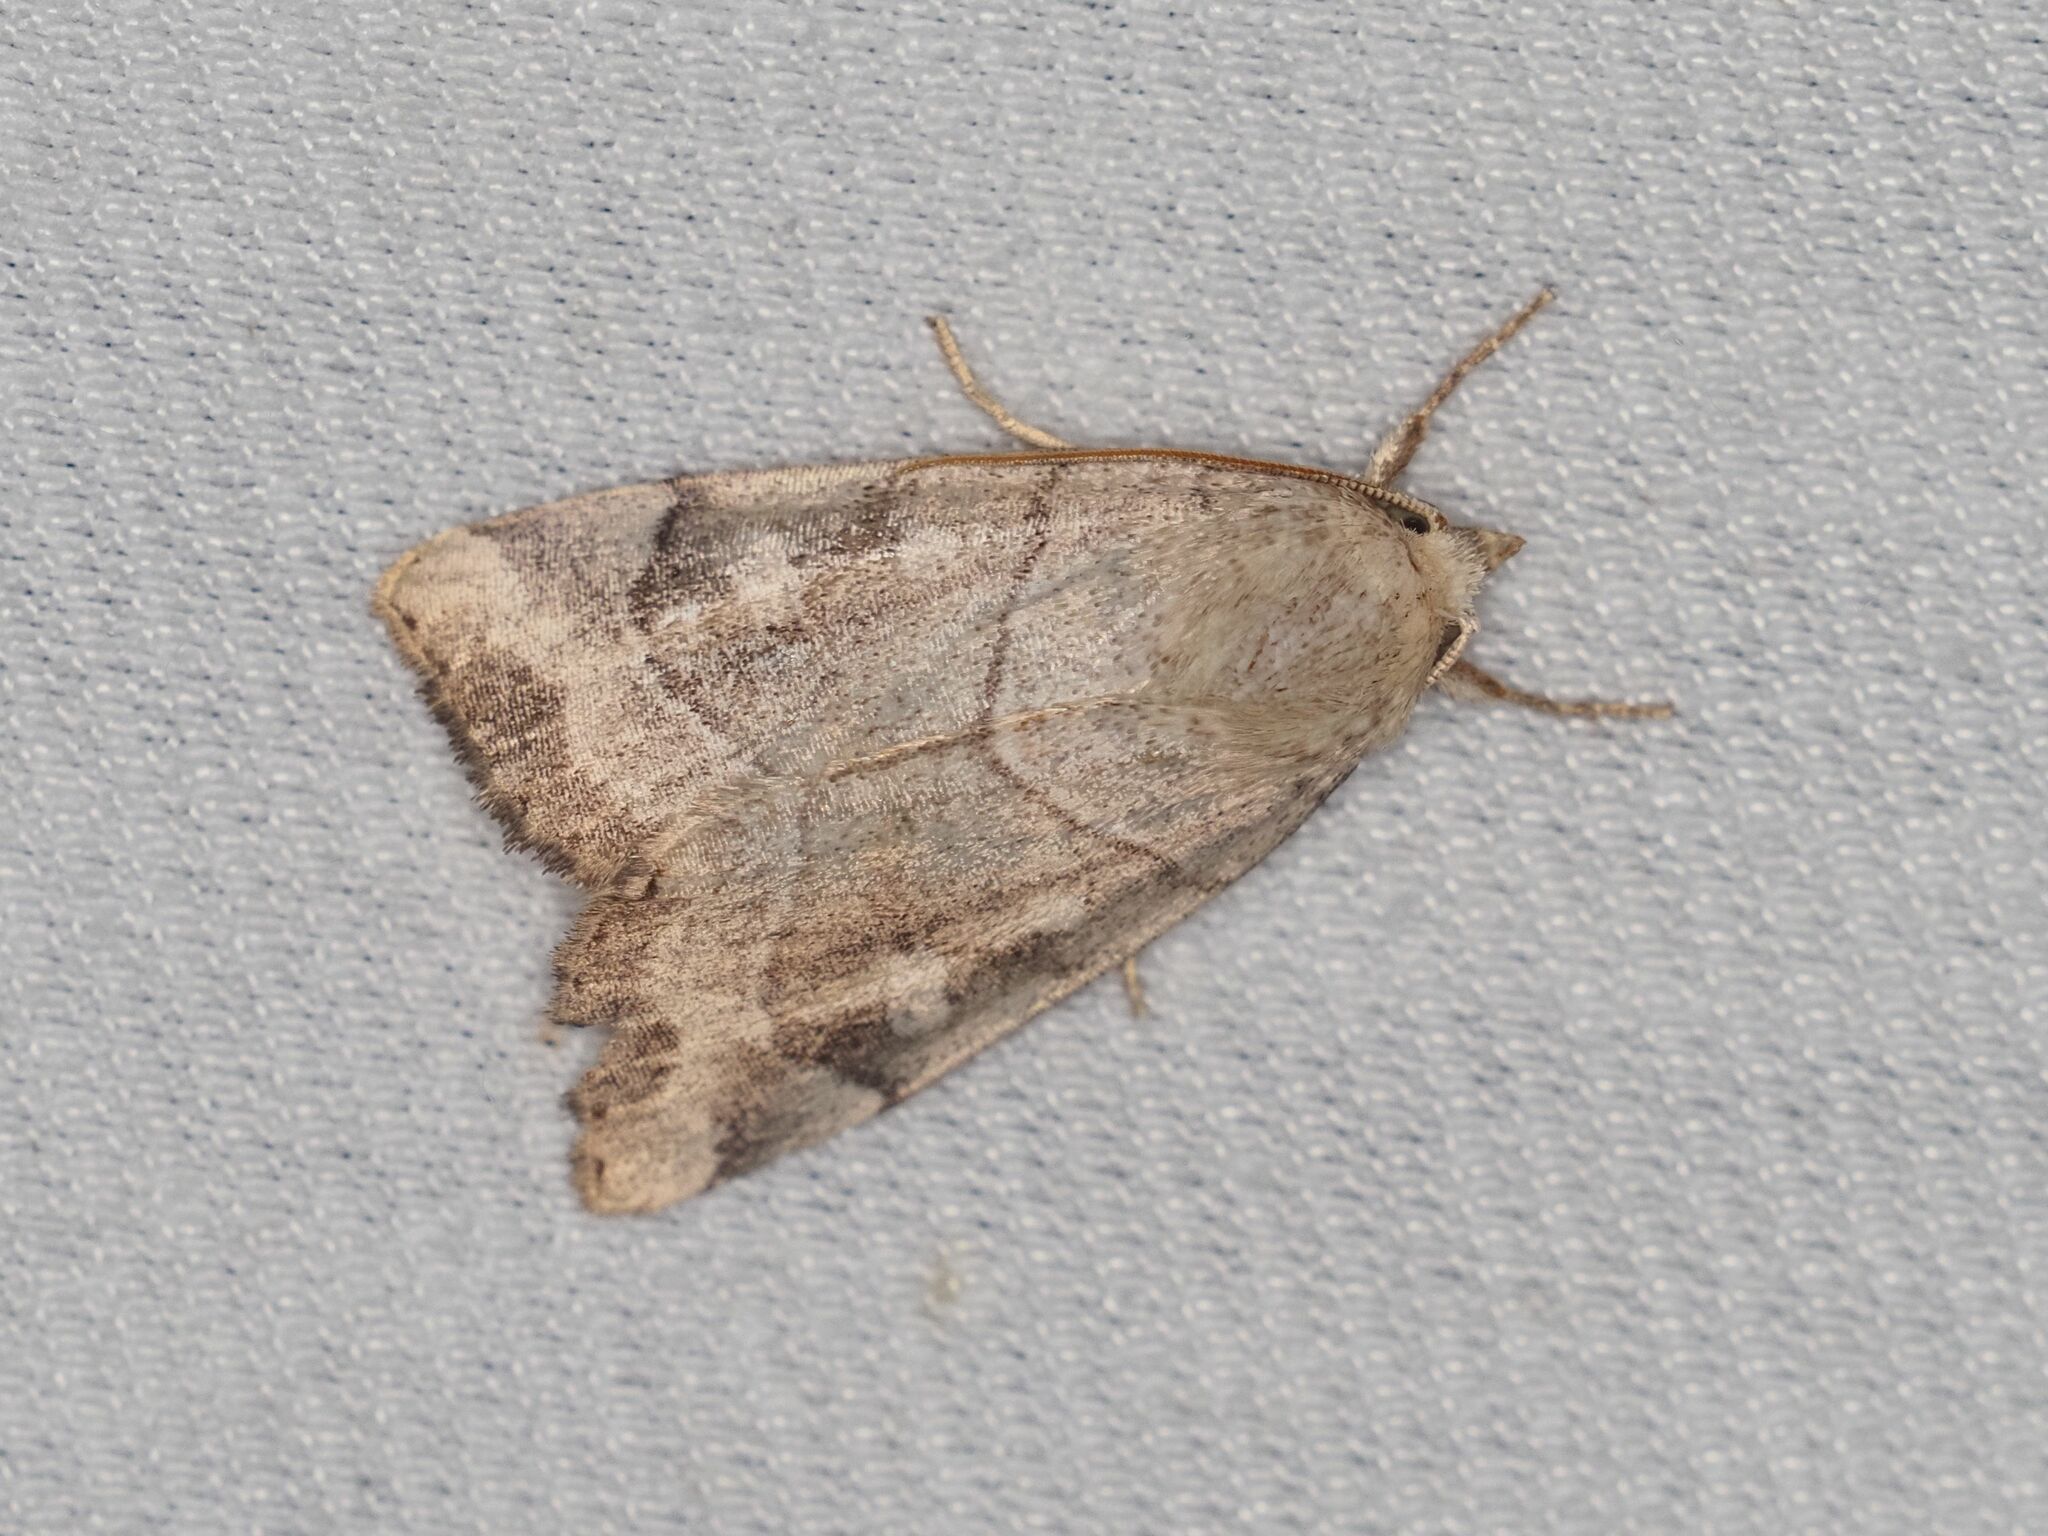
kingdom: Animalia
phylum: Arthropoda
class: Insecta
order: Lepidoptera
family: Noctuidae
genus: Cosmia
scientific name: Cosmia trapezina
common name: Dun-bar
